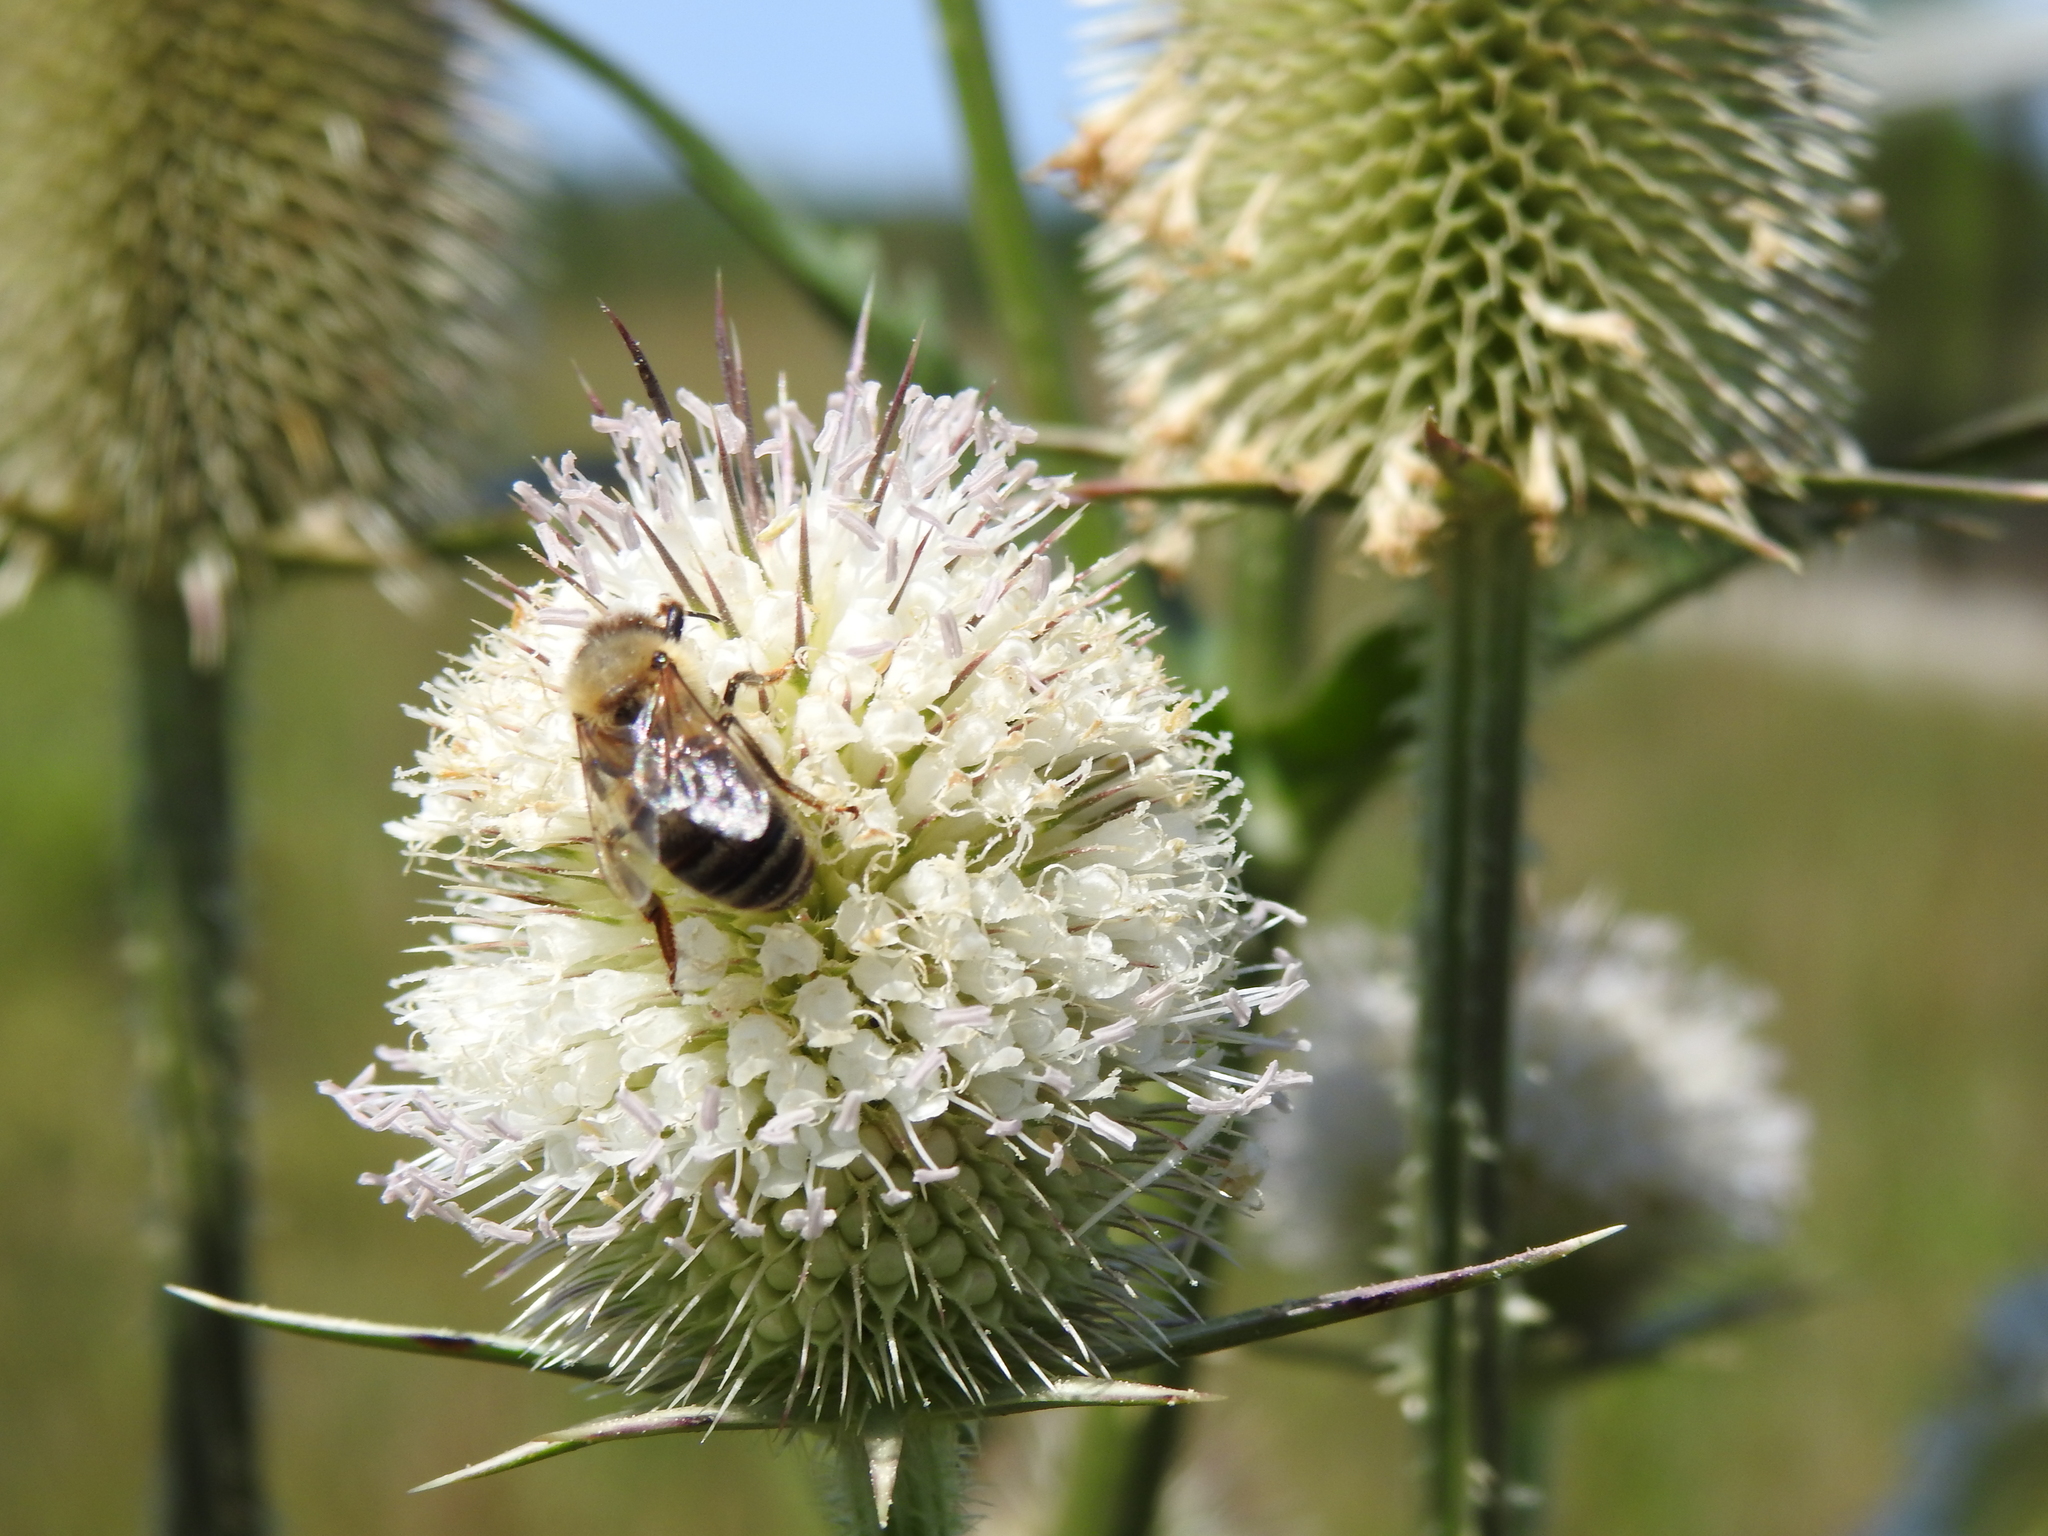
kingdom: Animalia
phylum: Arthropoda
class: Insecta
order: Hymenoptera
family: Apidae
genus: Apis
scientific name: Apis mellifera
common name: Honey bee
